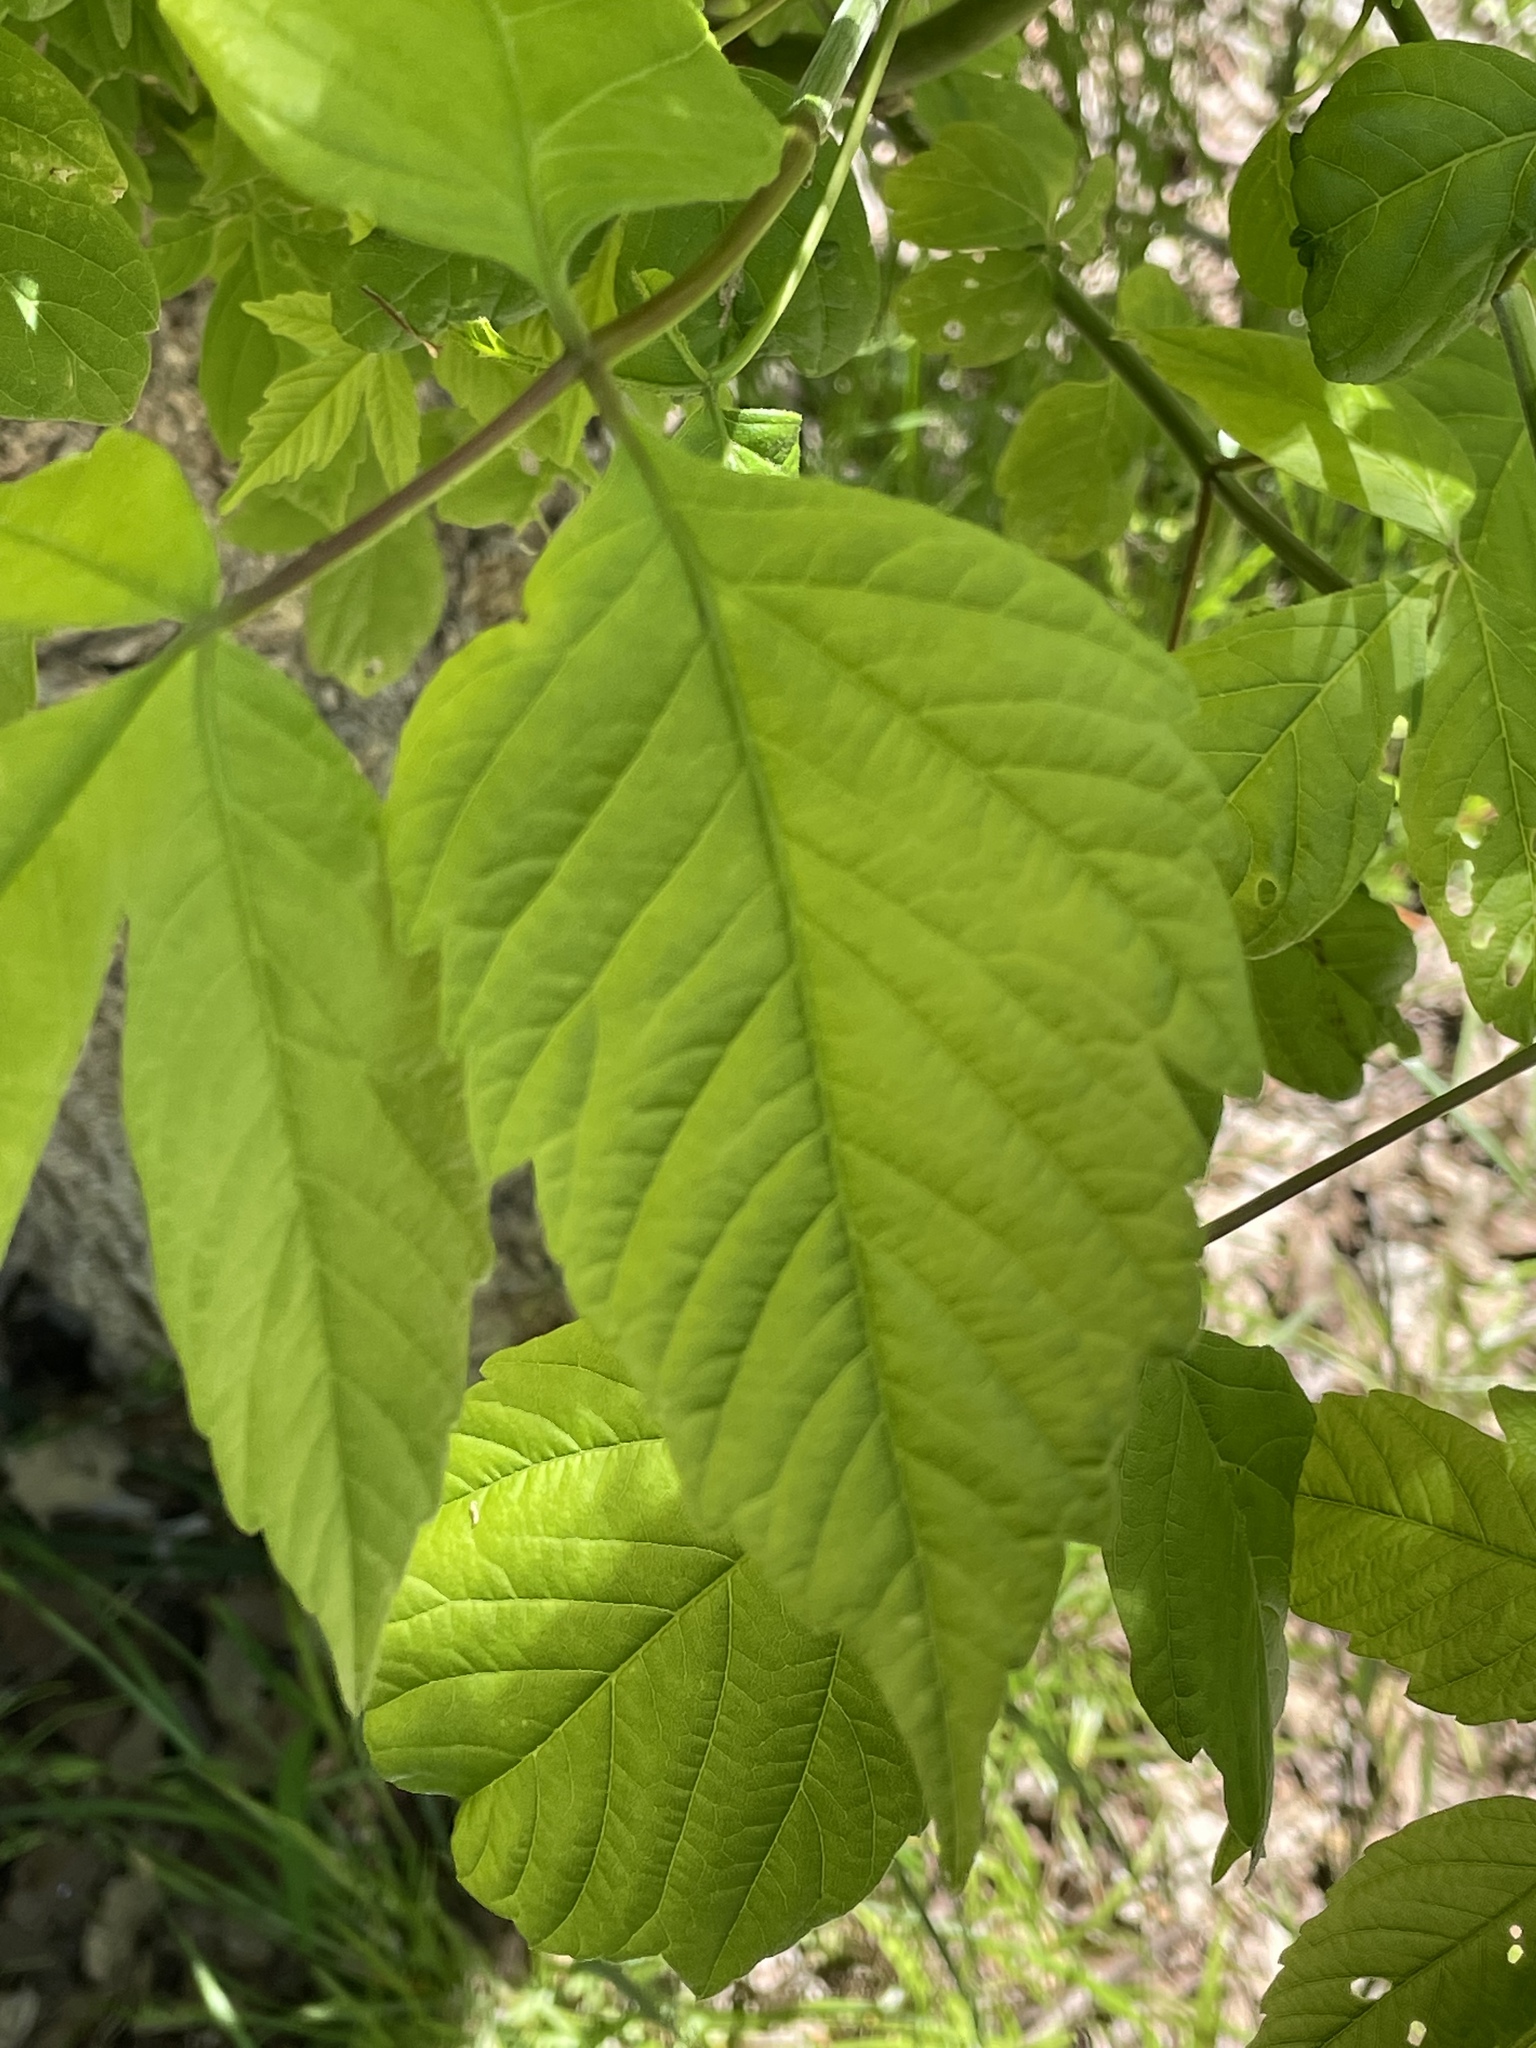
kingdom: Plantae
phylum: Tracheophyta
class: Magnoliopsida
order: Sapindales
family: Sapindaceae
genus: Acer
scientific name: Acer negundo
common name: Ashleaf maple
